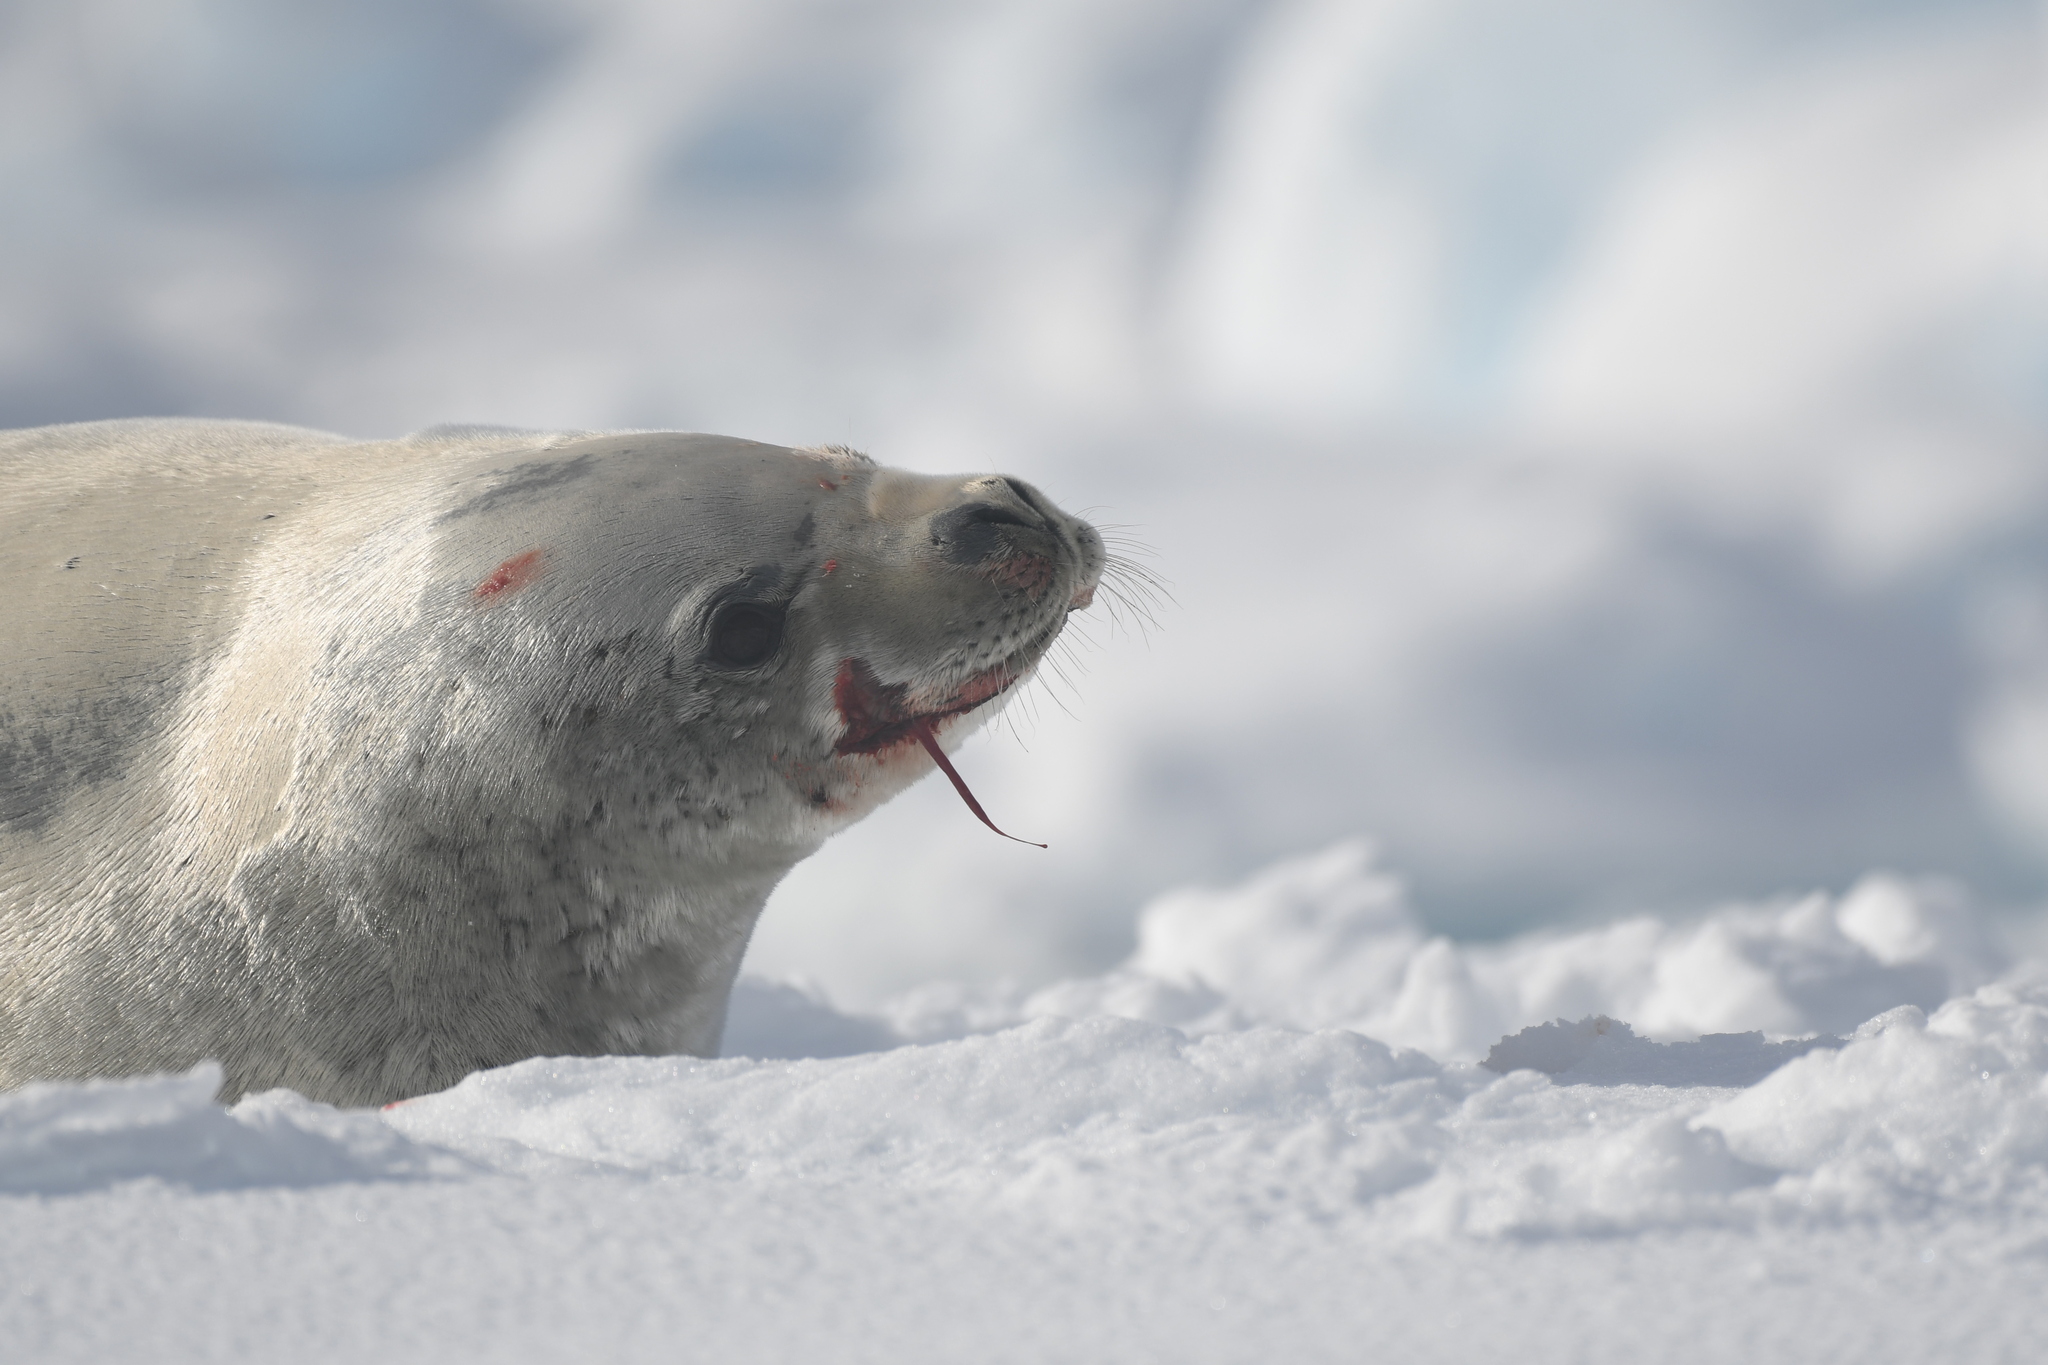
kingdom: Animalia
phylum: Chordata
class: Mammalia
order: Carnivora
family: Phocidae
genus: Lobodon
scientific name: Lobodon carcinophaga
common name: Crabeater seal
